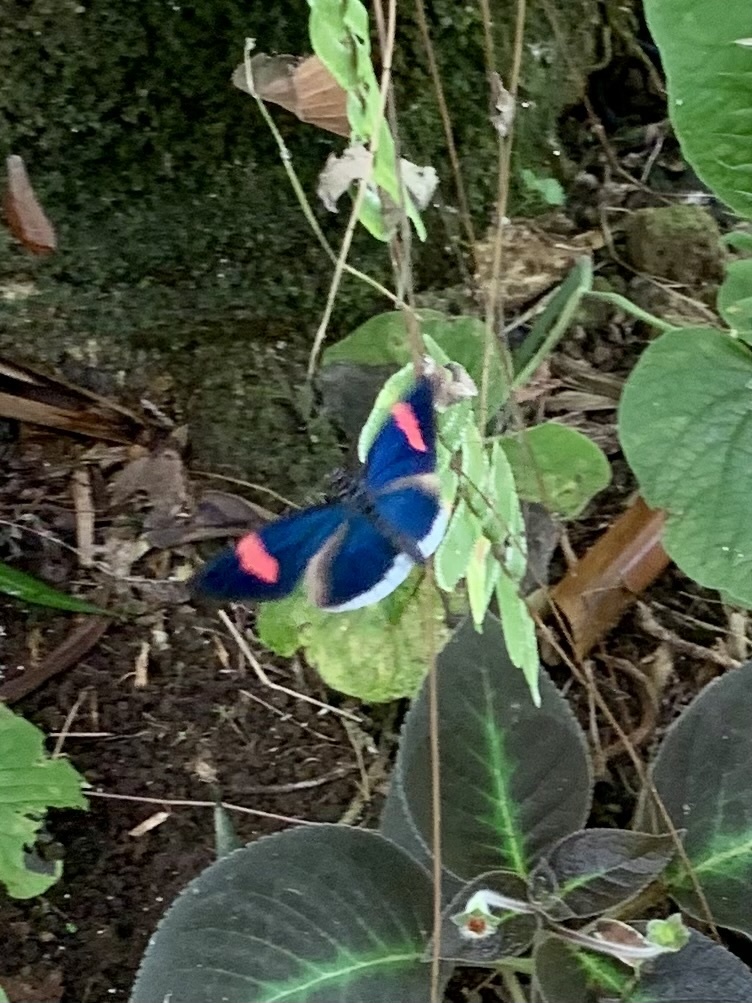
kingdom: Animalia
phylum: Arthropoda
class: Insecta
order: Lepidoptera
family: Nymphalidae
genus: Heliconius
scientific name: Heliconius erato
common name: Common patch longwing
